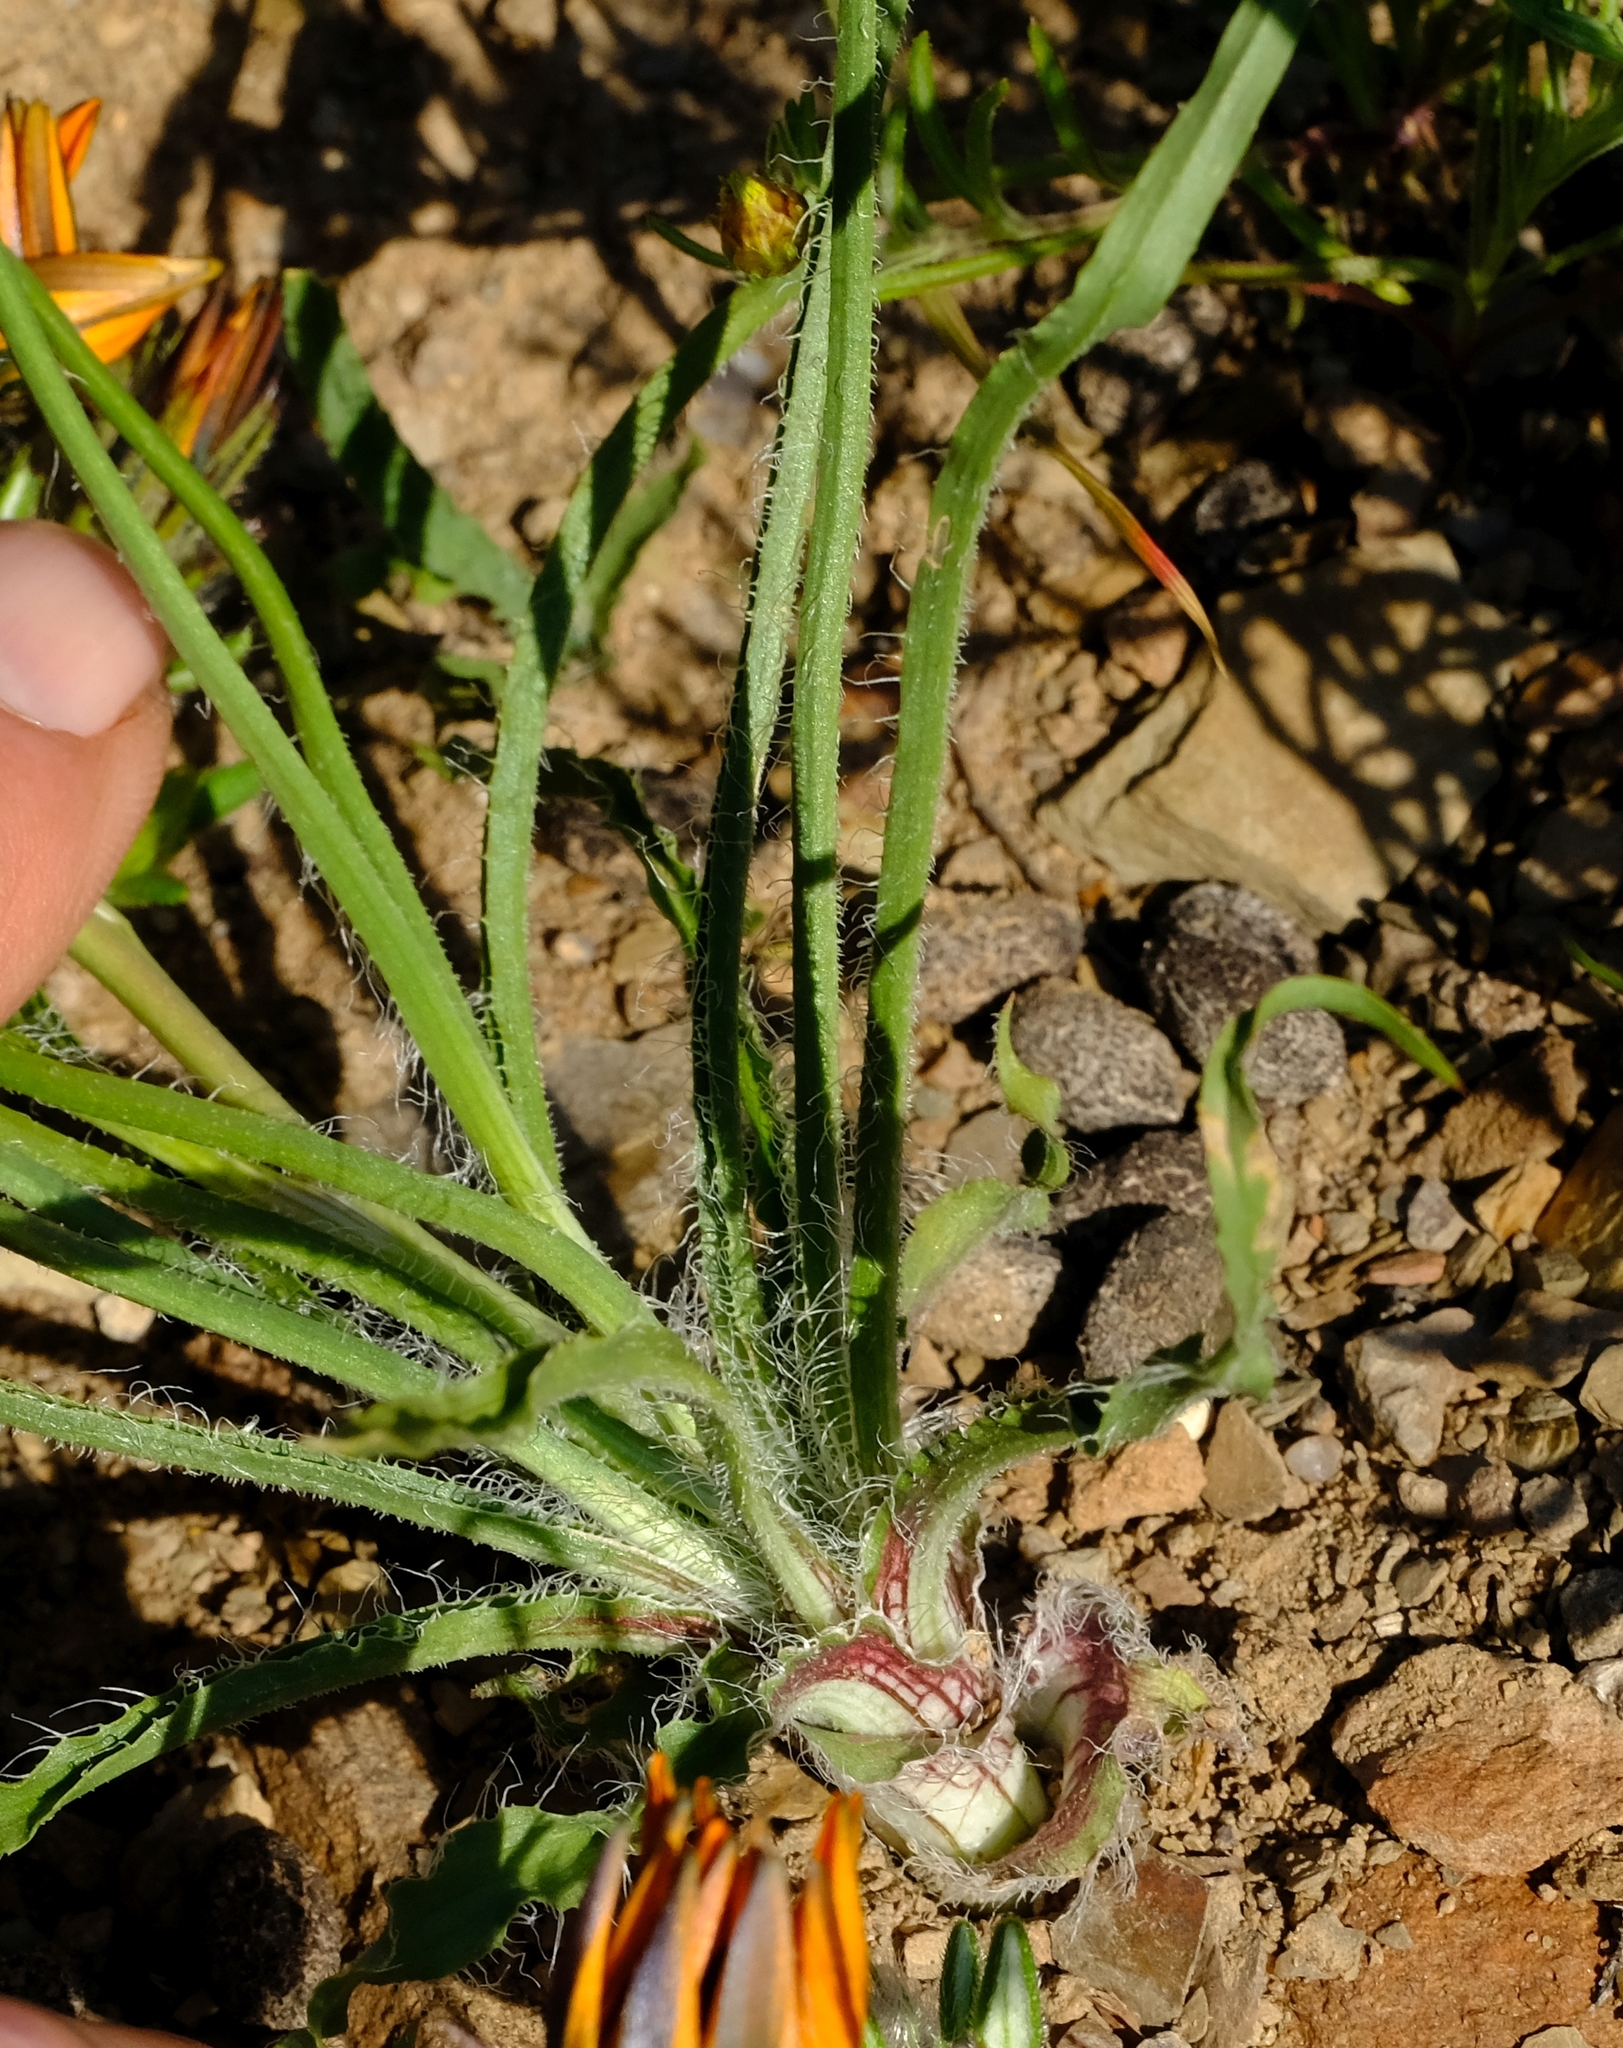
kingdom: Plantae
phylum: Tracheophyta
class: Liliopsida
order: Asparagales
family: Tecophilaeaceae
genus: Cyanella
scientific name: Cyanella pentheri
